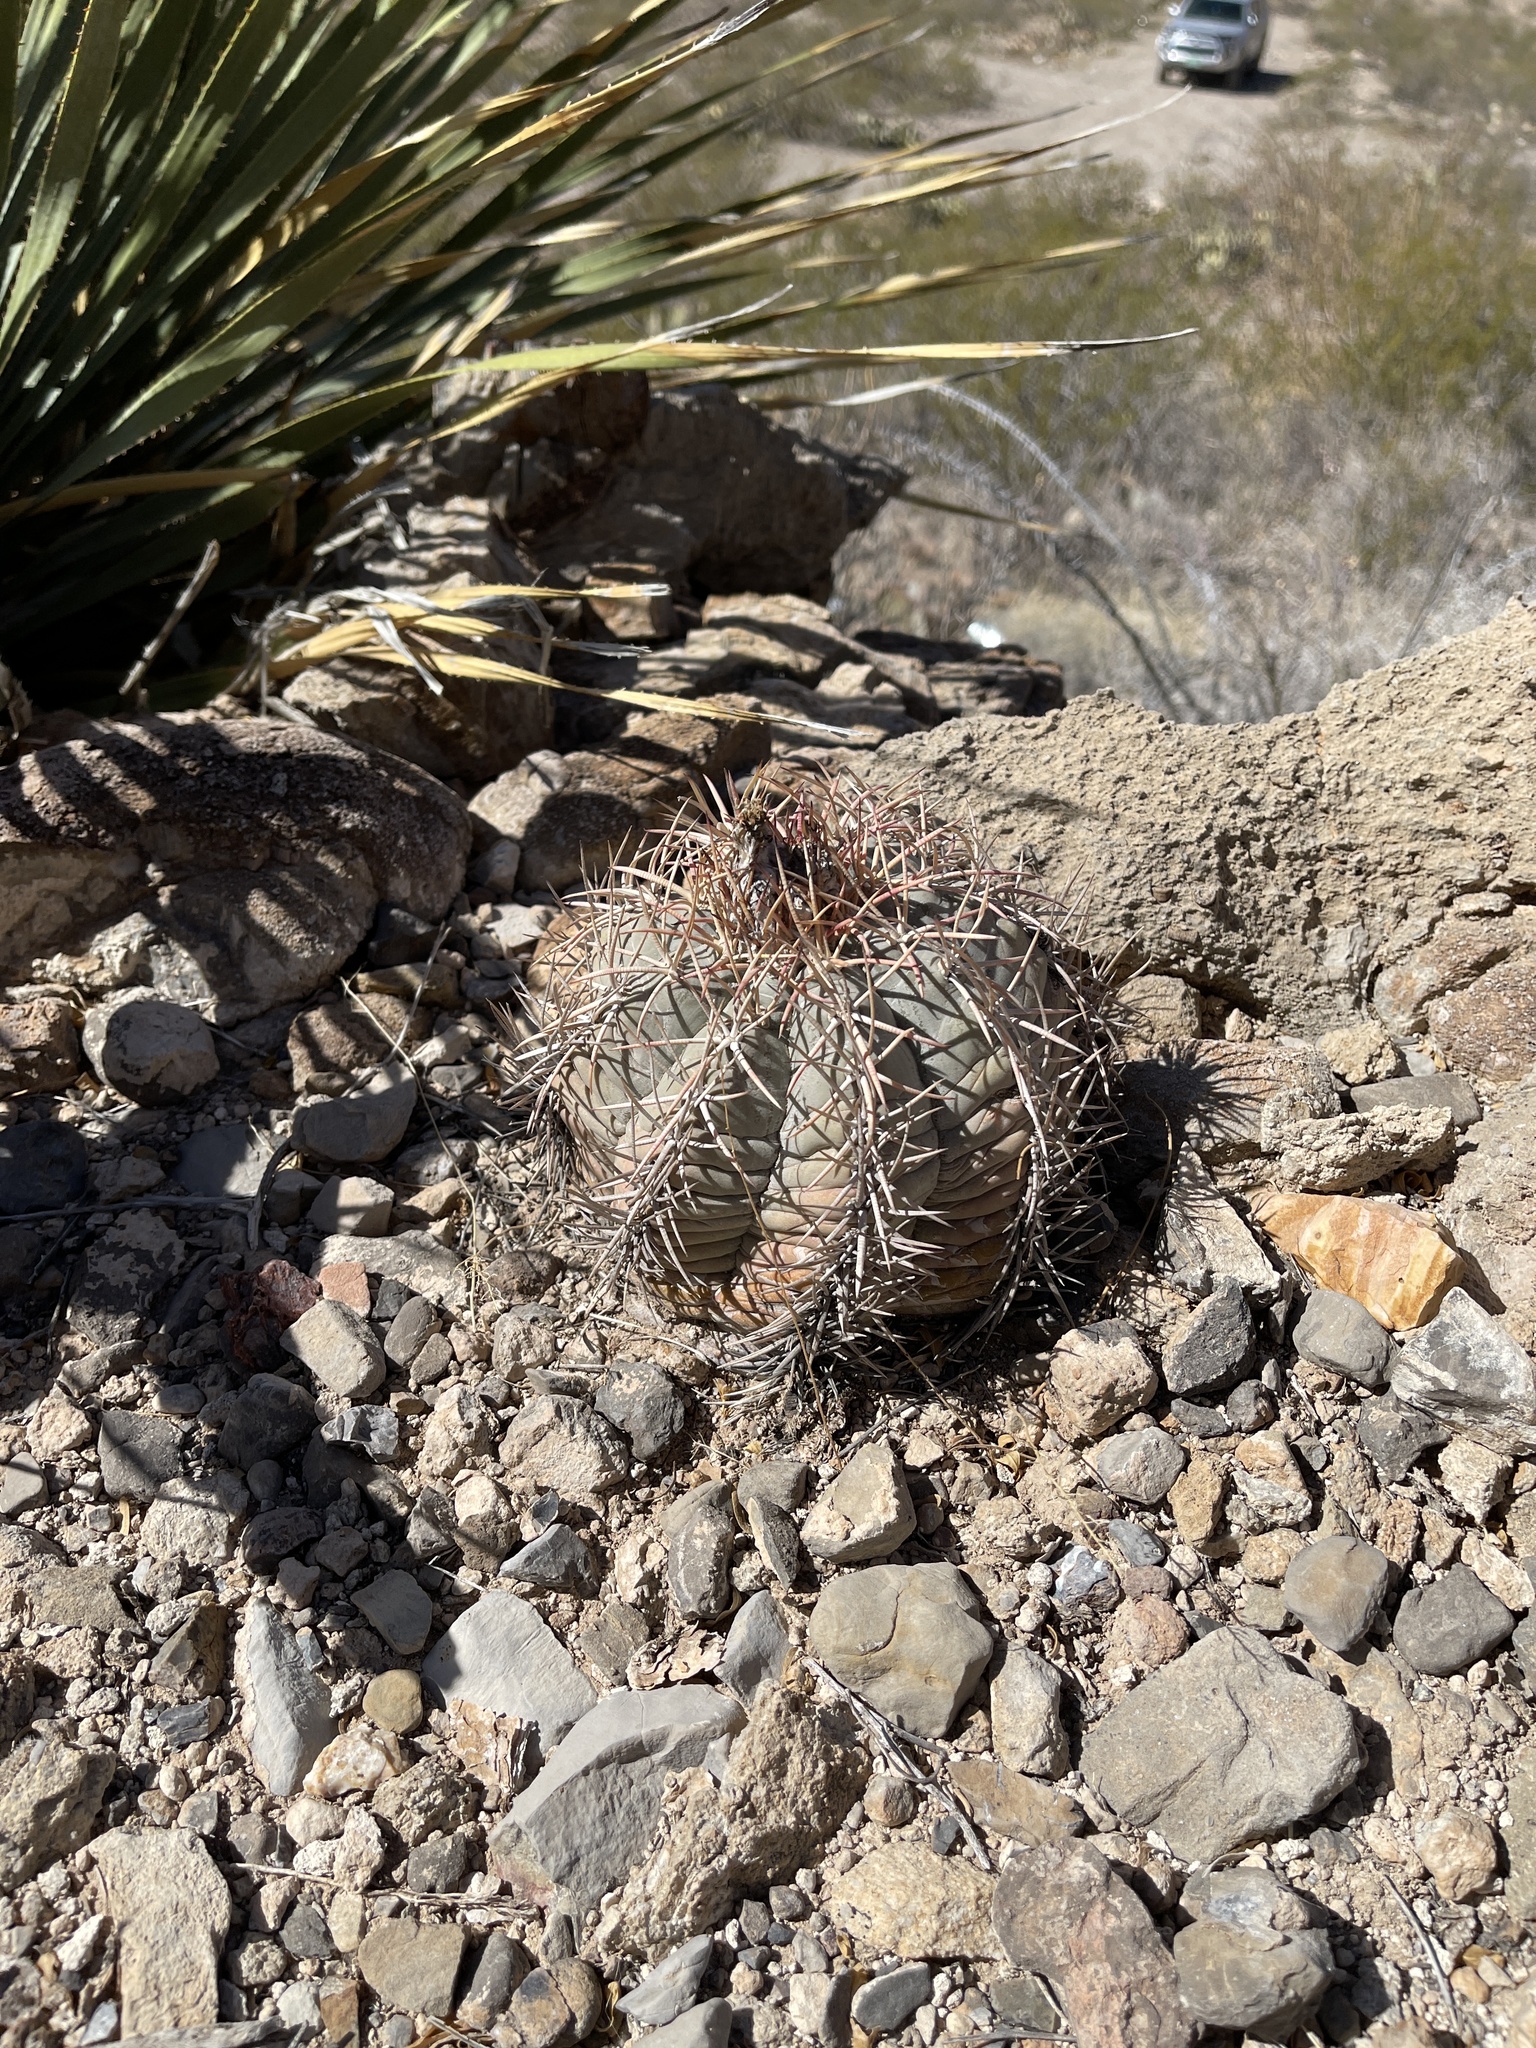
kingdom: Plantae
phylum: Tracheophyta
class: Magnoliopsida
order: Caryophyllales
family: Cactaceae
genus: Echinocactus
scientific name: Echinocactus horizonthalonius
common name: Devilshead
